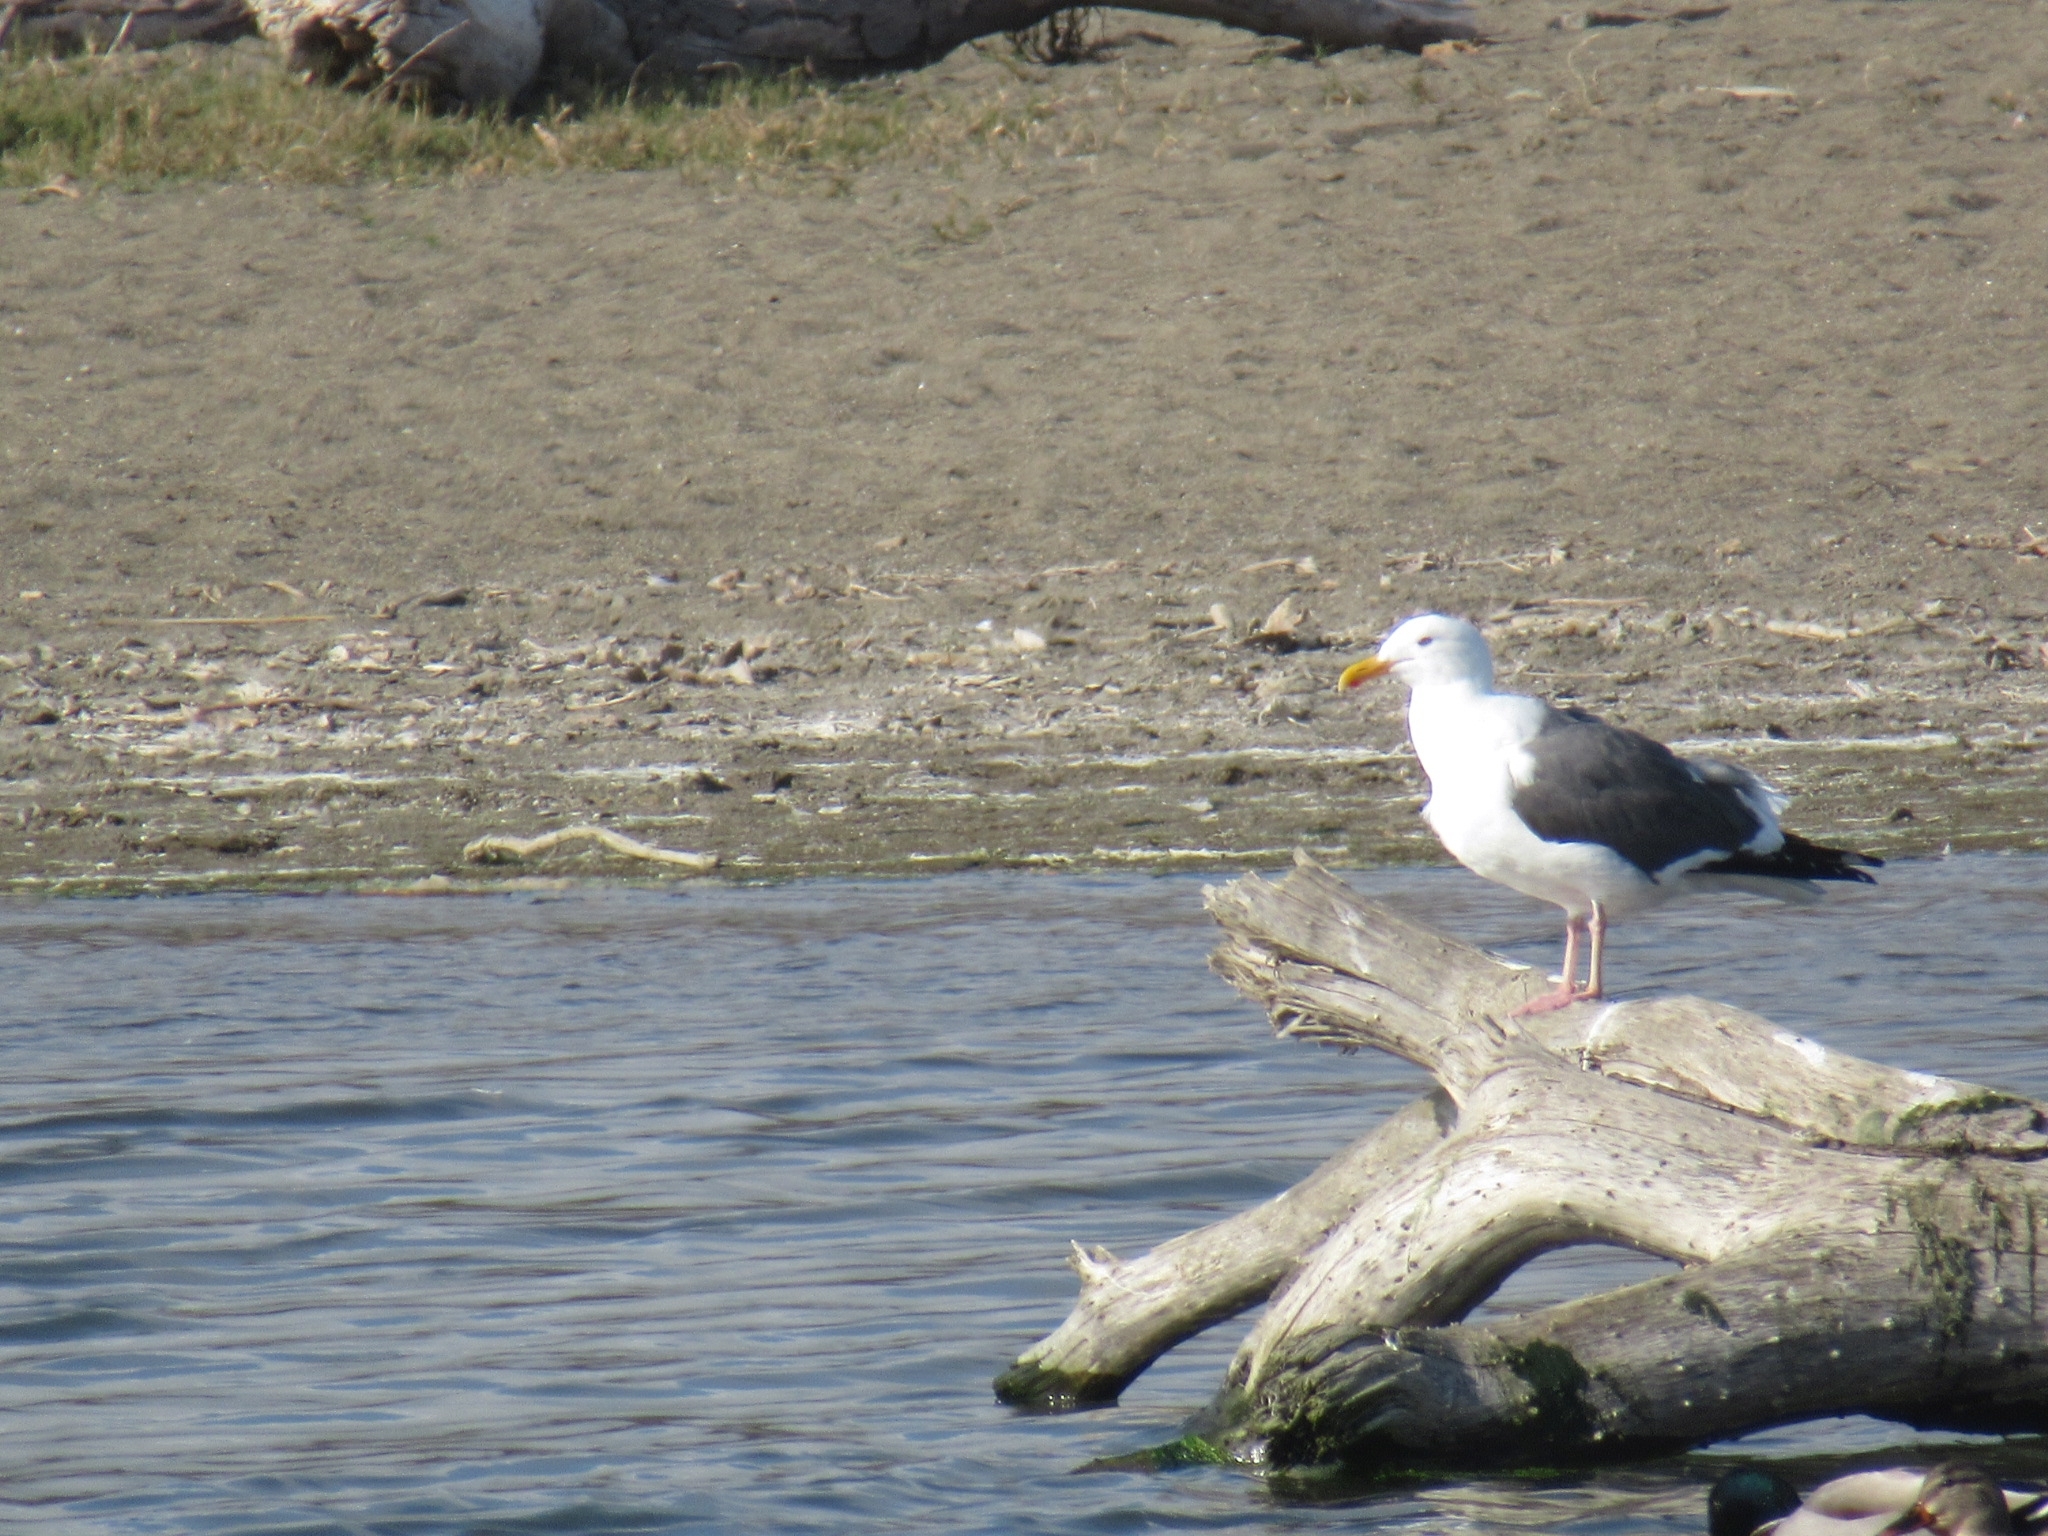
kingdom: Animalia
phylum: Chordata
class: Aves
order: Charadriiformes
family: Laridae
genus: Larus
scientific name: Larus occidentalis
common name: Western gull
